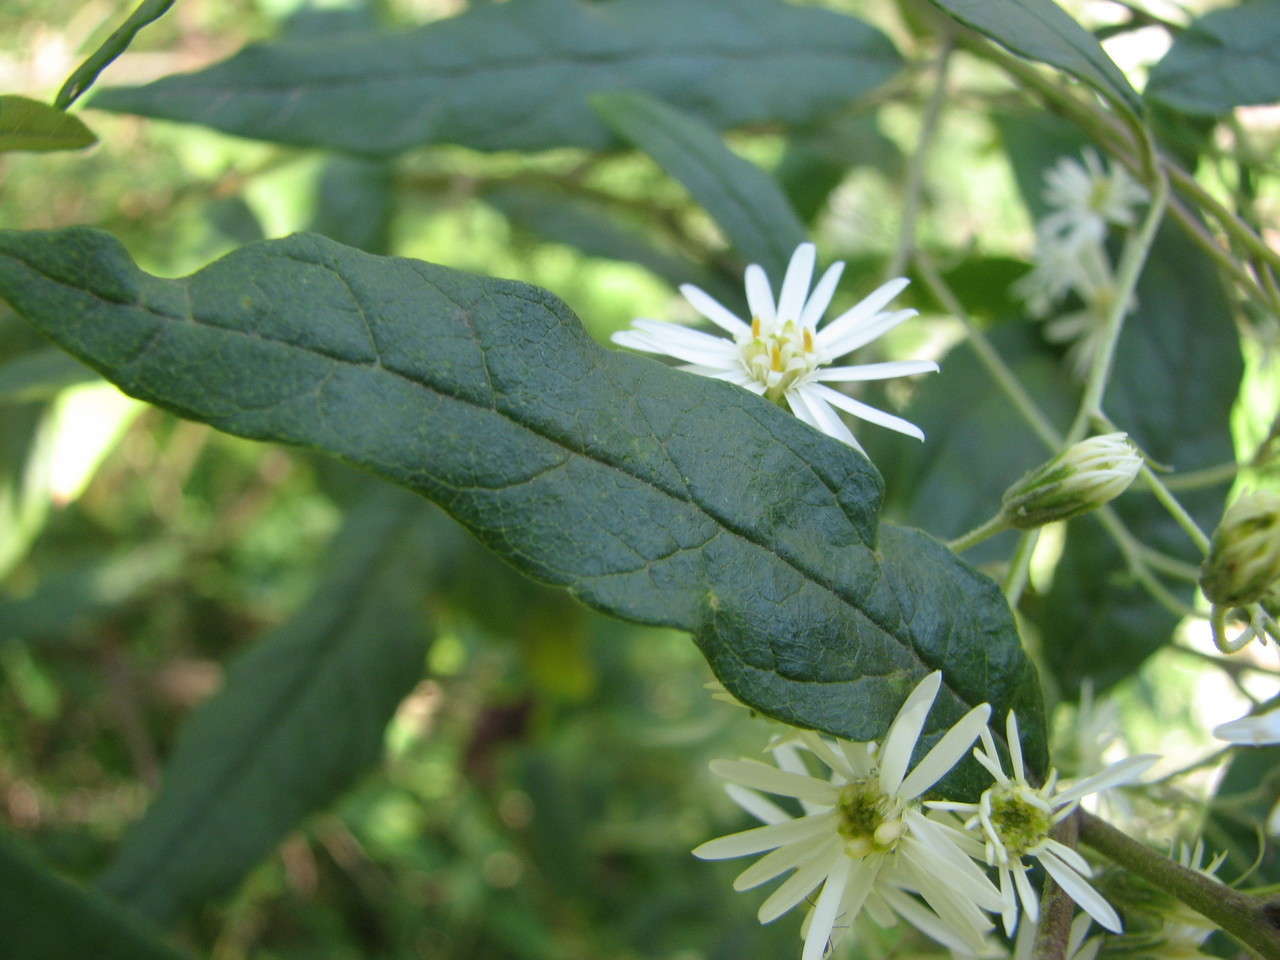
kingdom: Plantae
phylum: Tracheophyta
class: Magnoliopsida
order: Asterales
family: Asteraceae
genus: Olearia
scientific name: Olearia lirata
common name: Dusty daisybush
